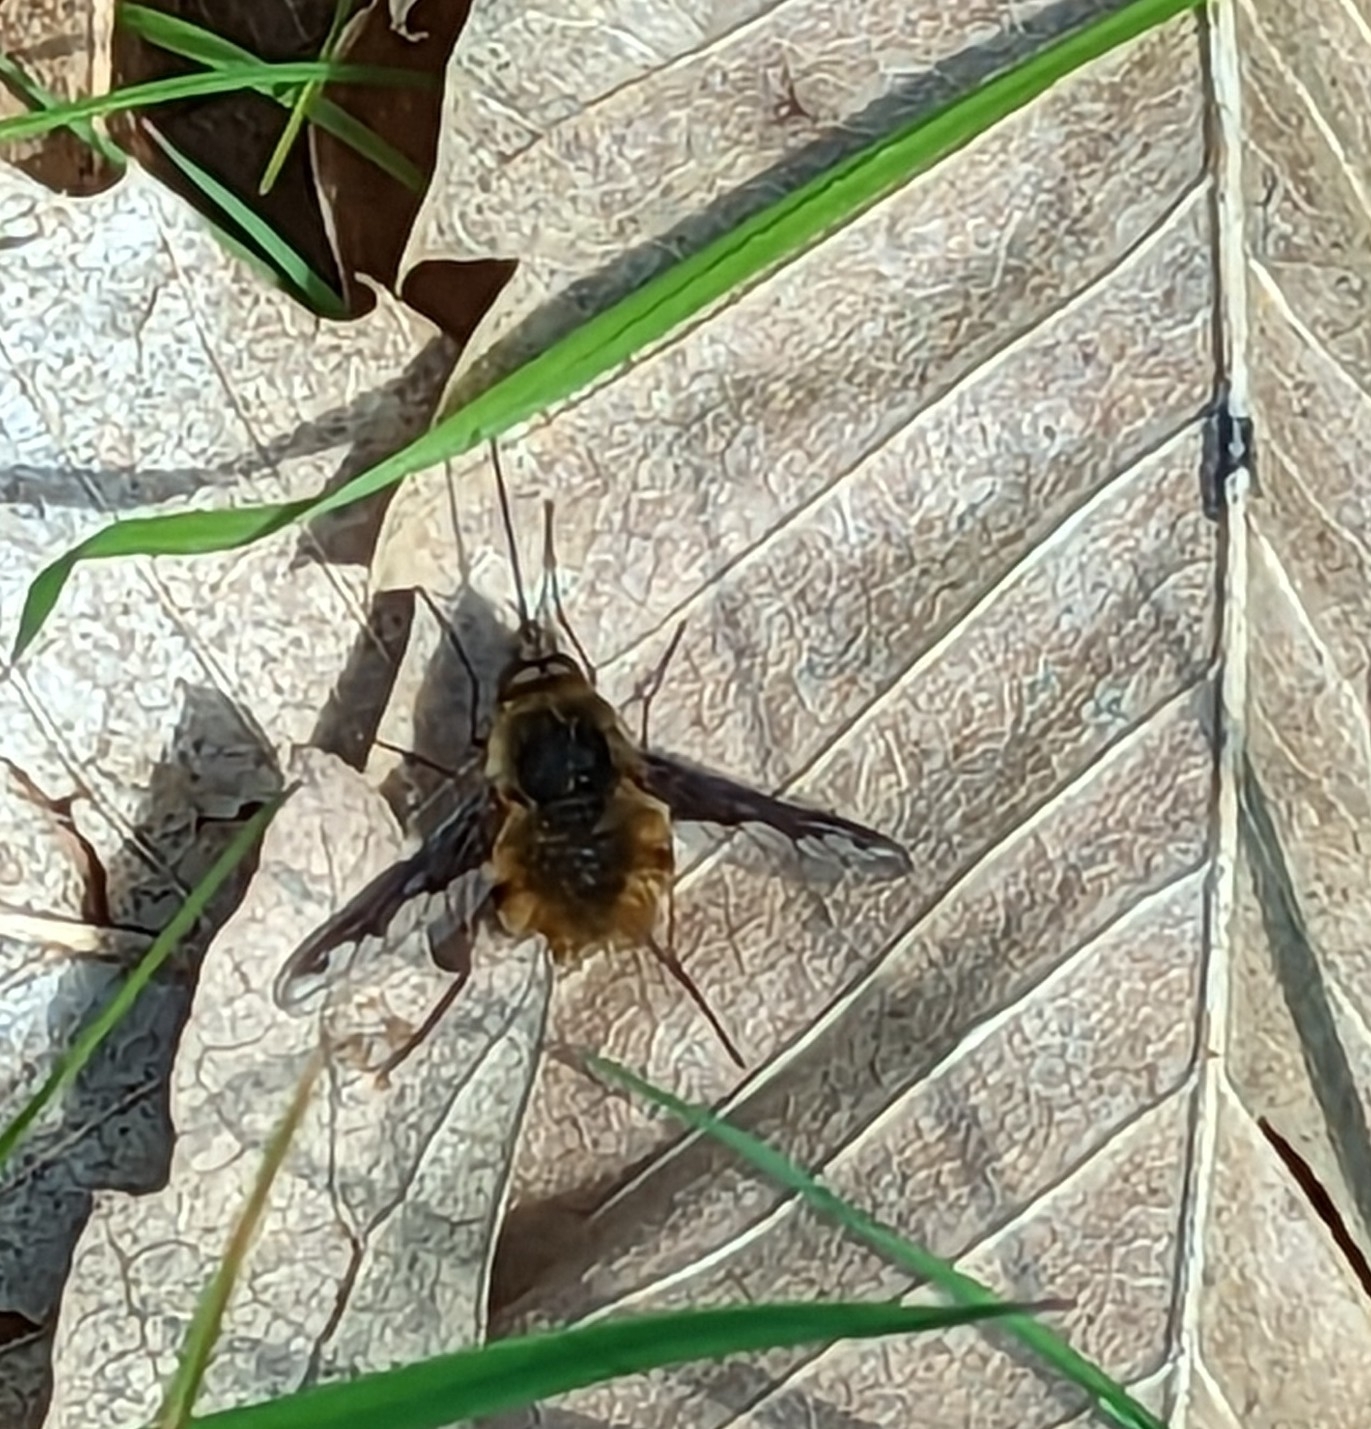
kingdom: Animalia
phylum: Arthropoda
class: Insecta
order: Diptera
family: Bombyliidae
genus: Bombylius
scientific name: Bombylius major
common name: Bee fly
